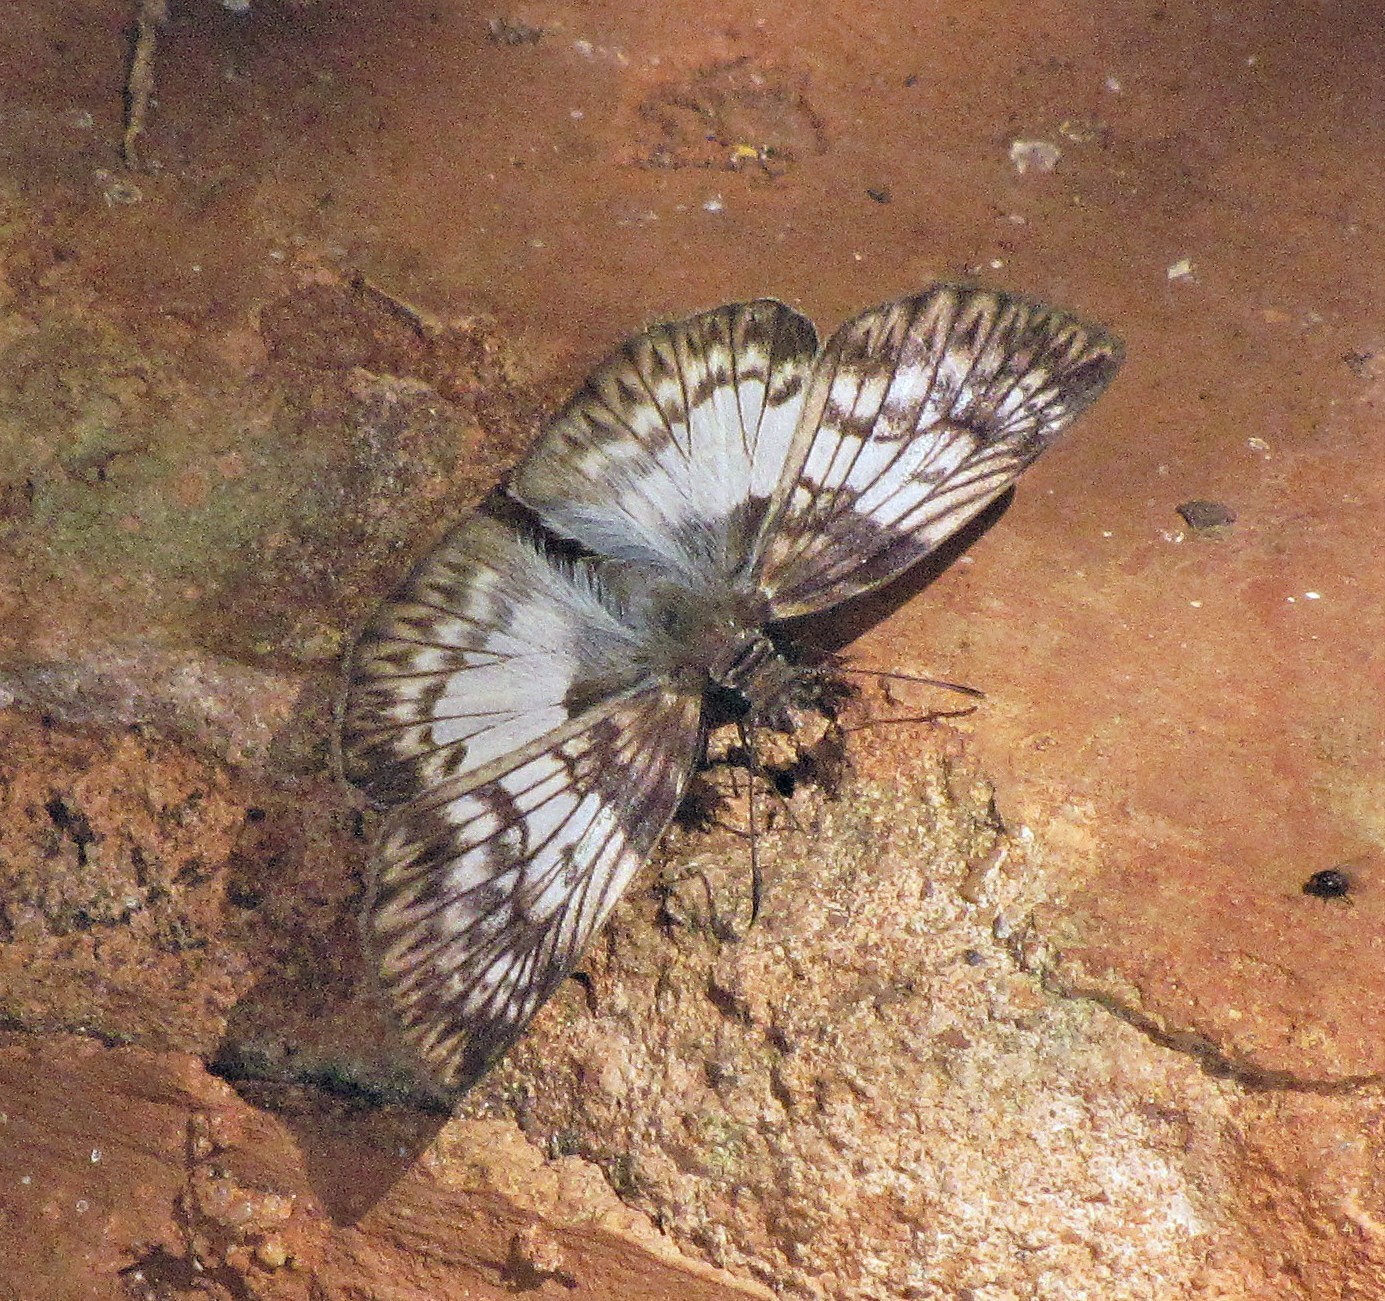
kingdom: Animalia
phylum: Arthropoda
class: Insecta
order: Lepidoptera
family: Hesperiidae
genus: Mylon
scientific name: Mylon maimon
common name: Common mylon
